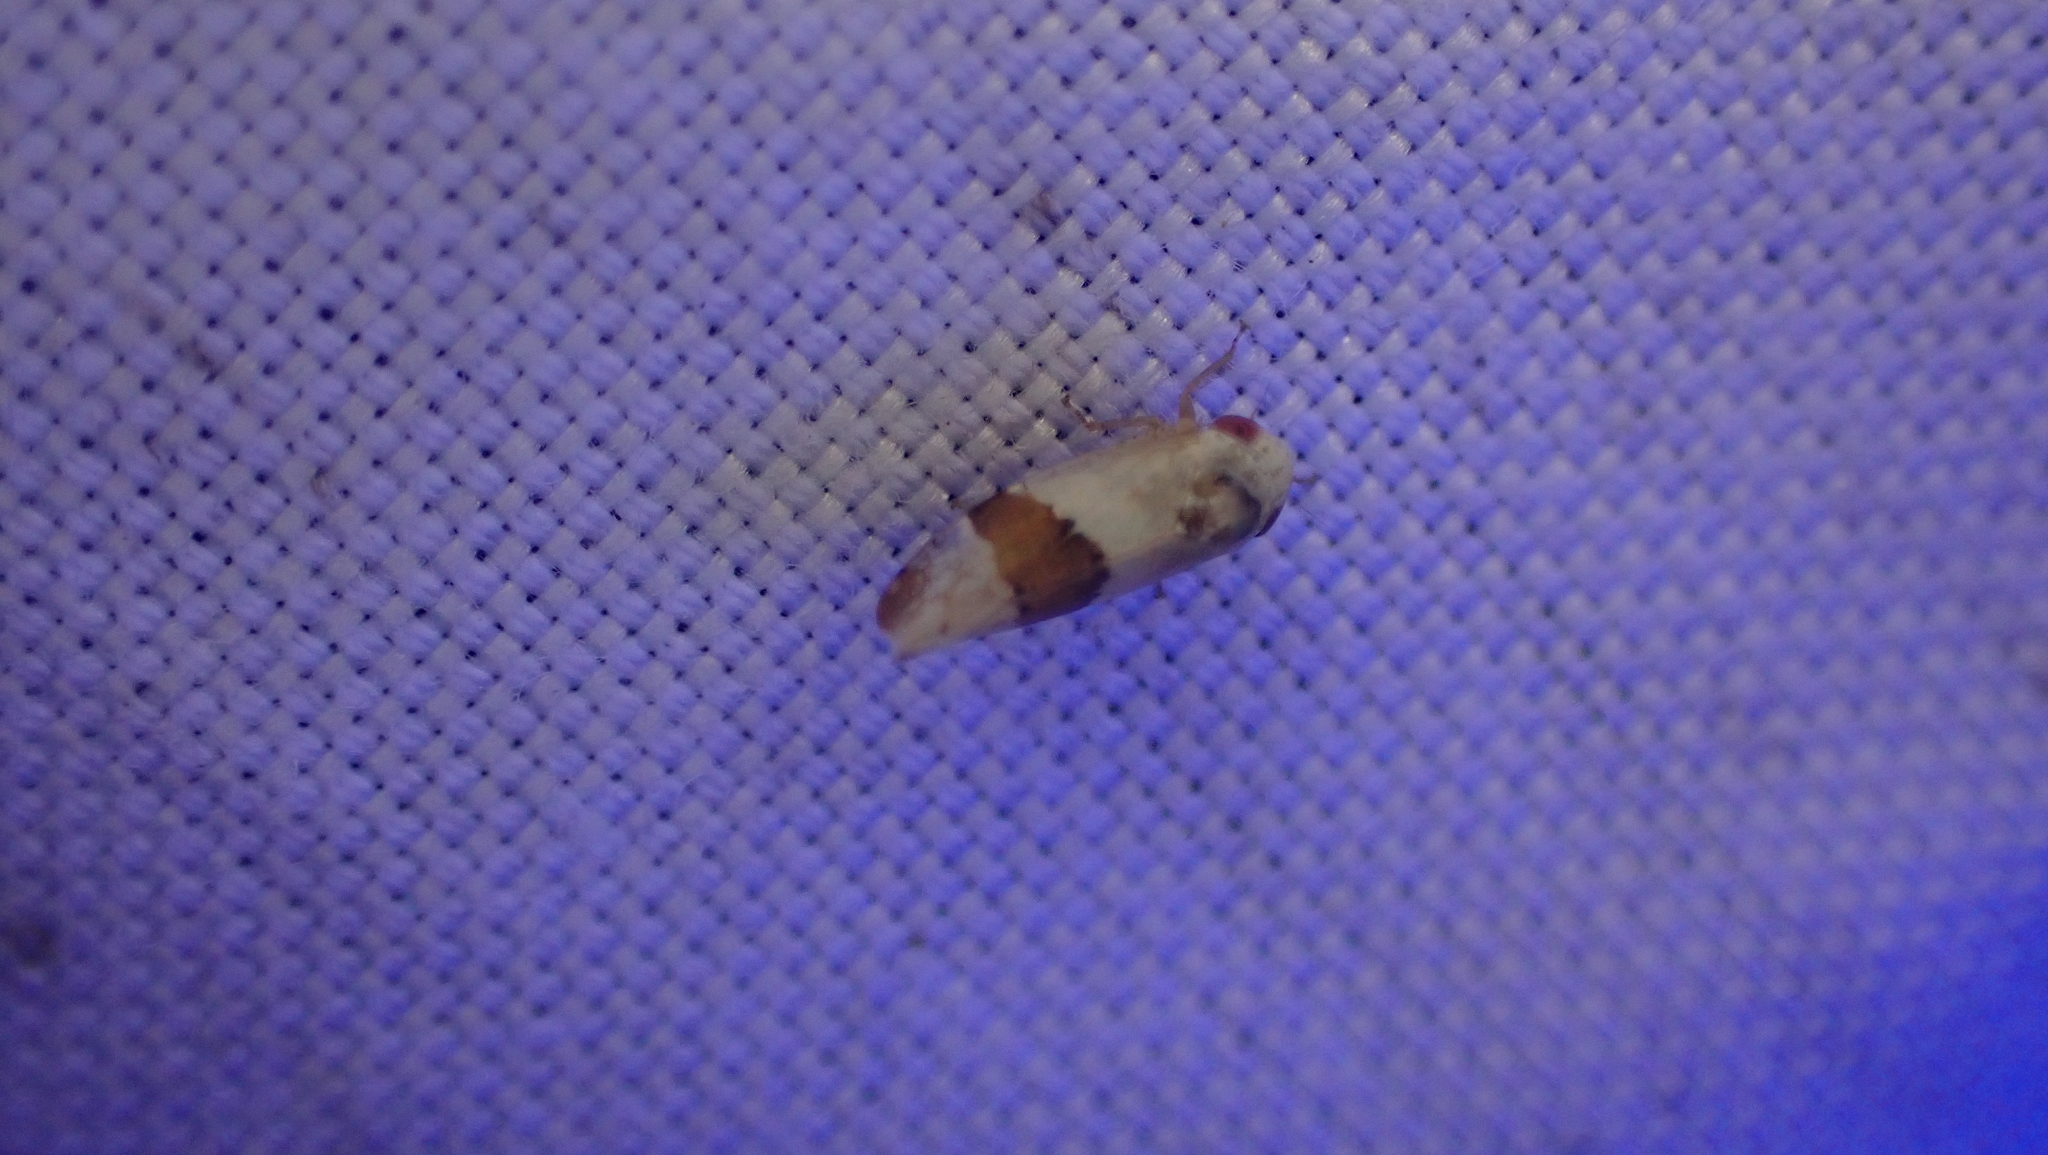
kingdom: Animalia
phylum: Arthropoda
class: Insecta
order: Hemiptera
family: Cicadellidae
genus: Norvellina
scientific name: Norvellina seminuda
